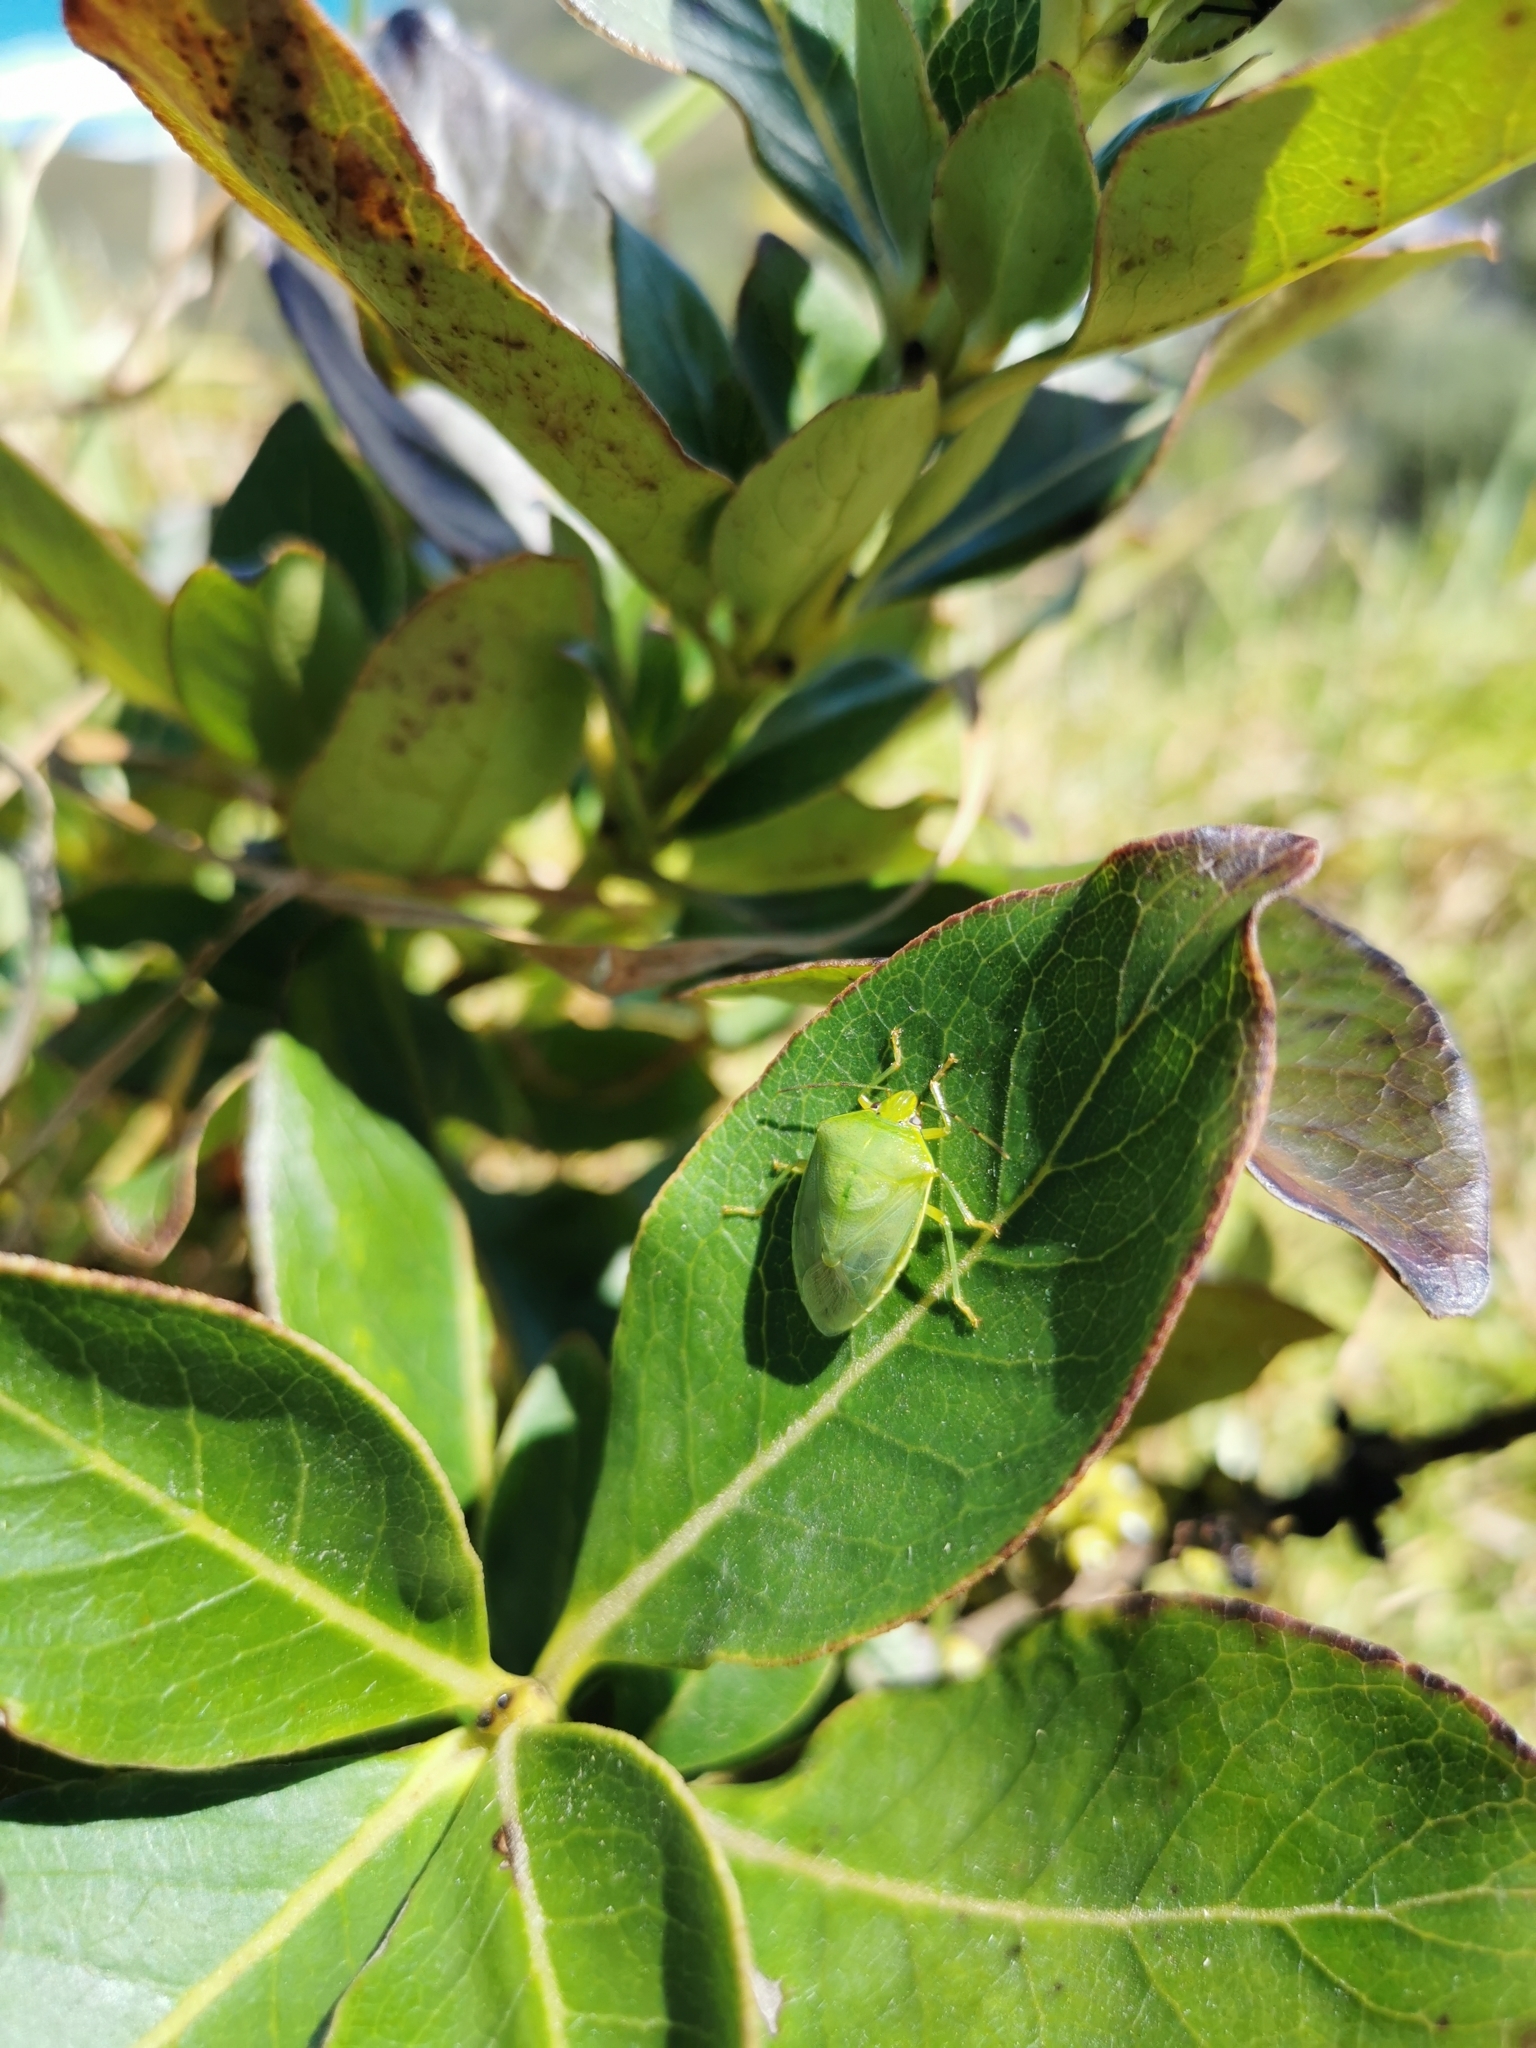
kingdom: Animalia
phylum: Arthropoda
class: Insecta
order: Hemiptera
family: Pentatomidae
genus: Glaucias
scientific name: Glaucias amyota
